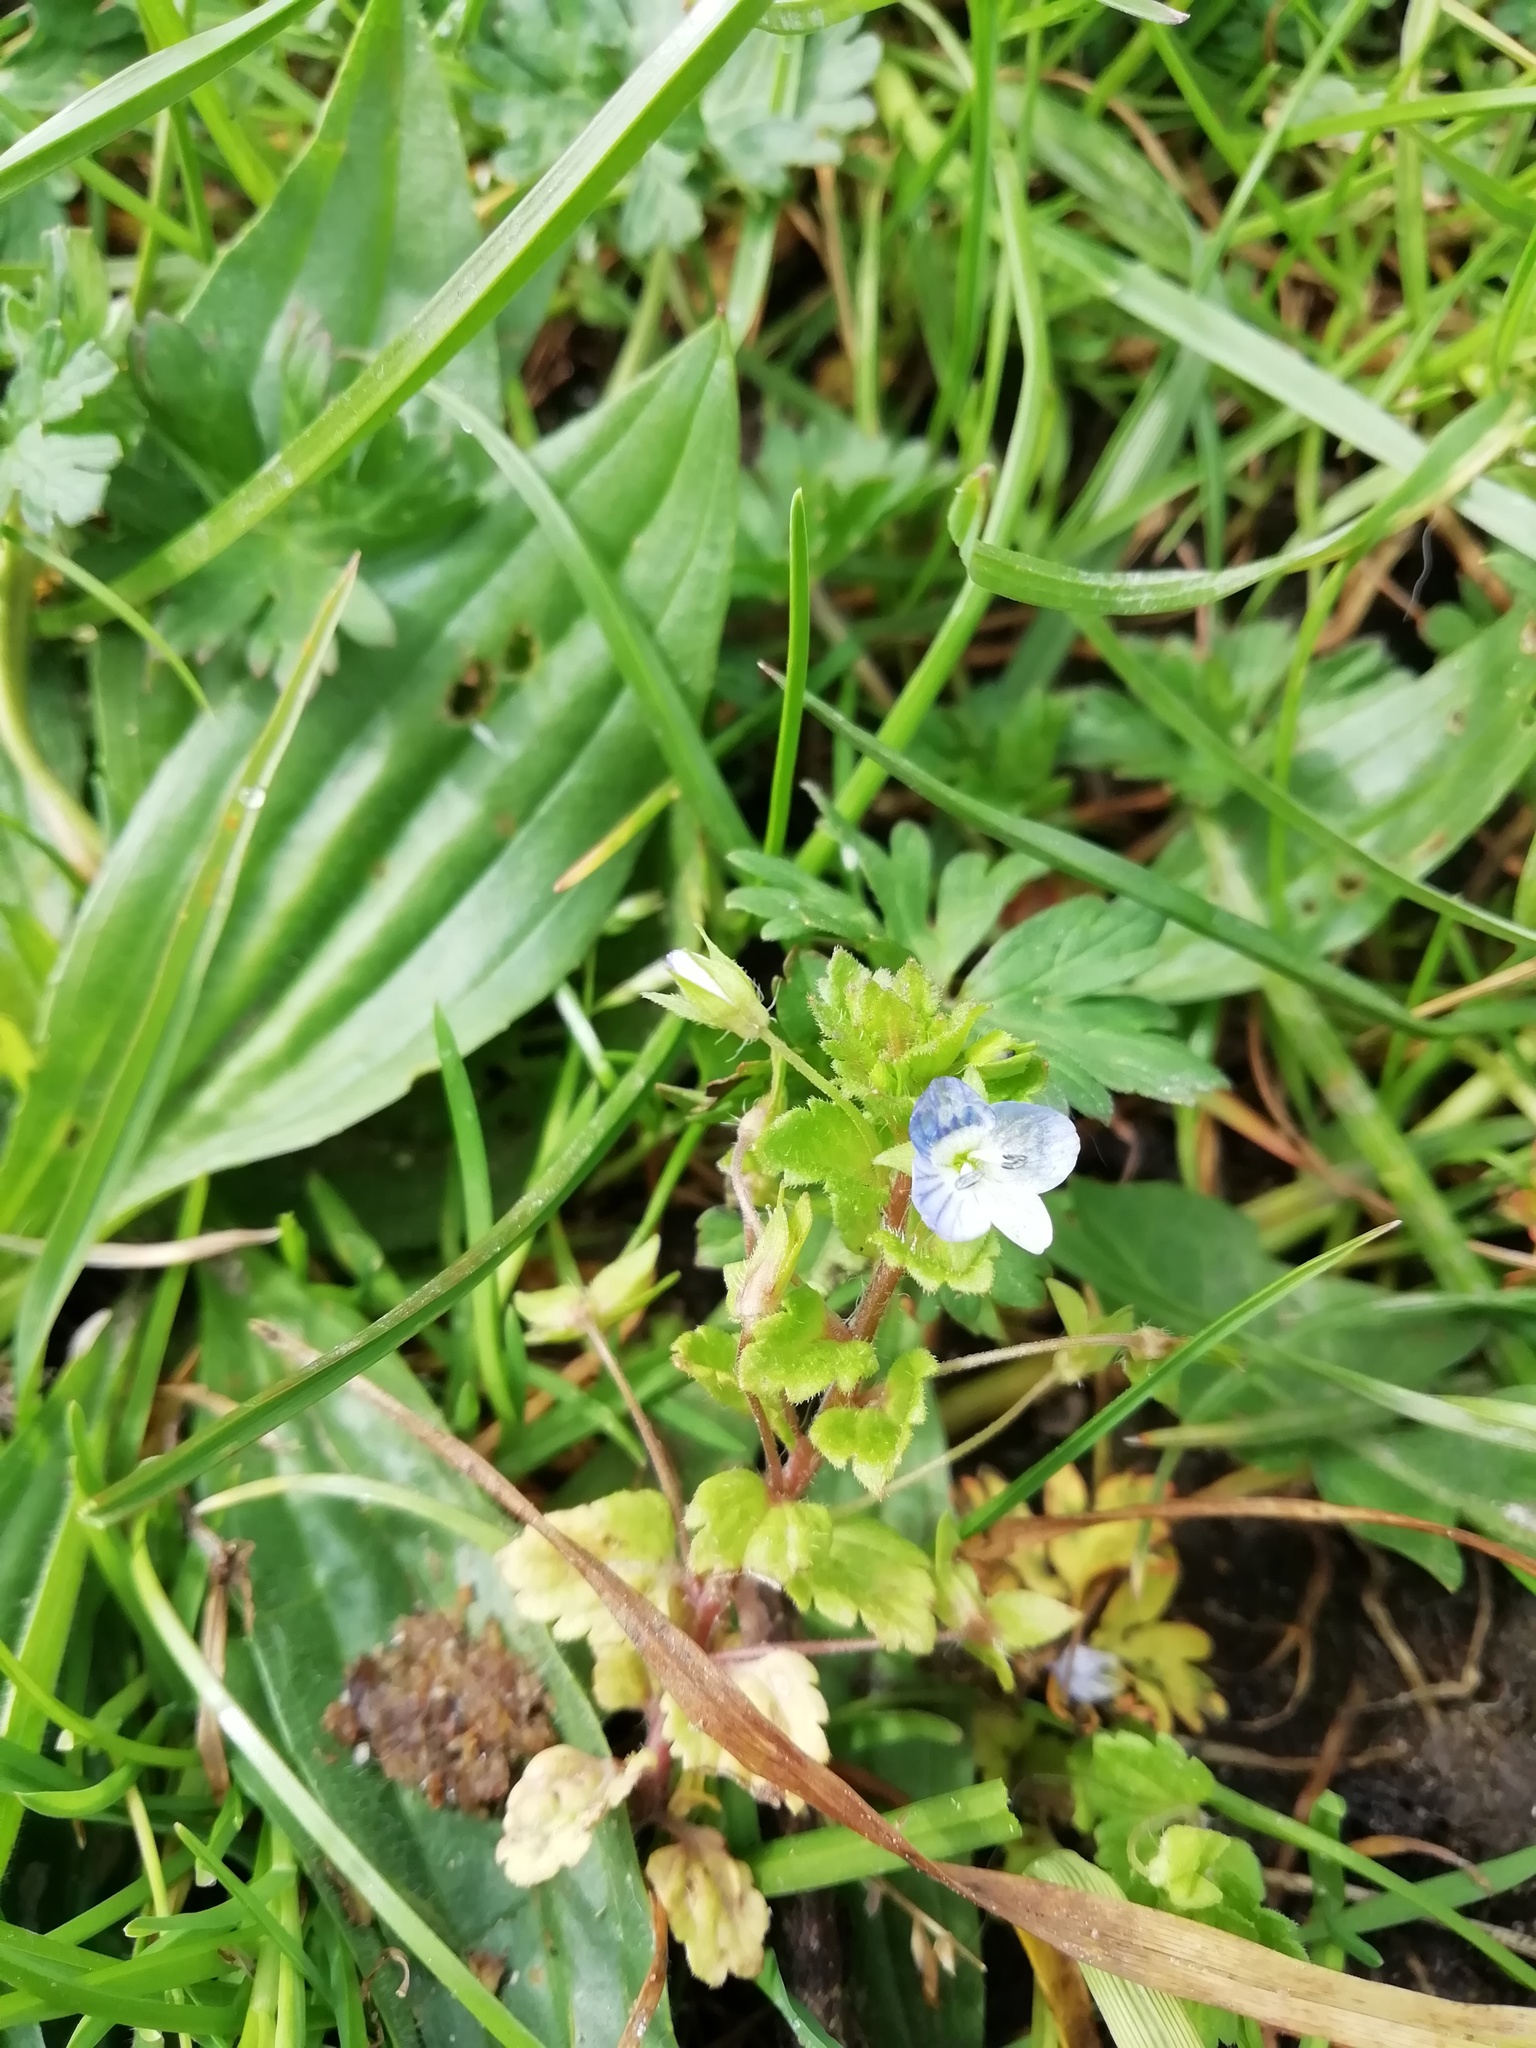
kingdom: Plantae
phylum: Tracheophyta
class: Magnoliopsida
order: Lamiales
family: Plantaginaceae
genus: Veronica
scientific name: Veronica persica
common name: Common field-speedwell
